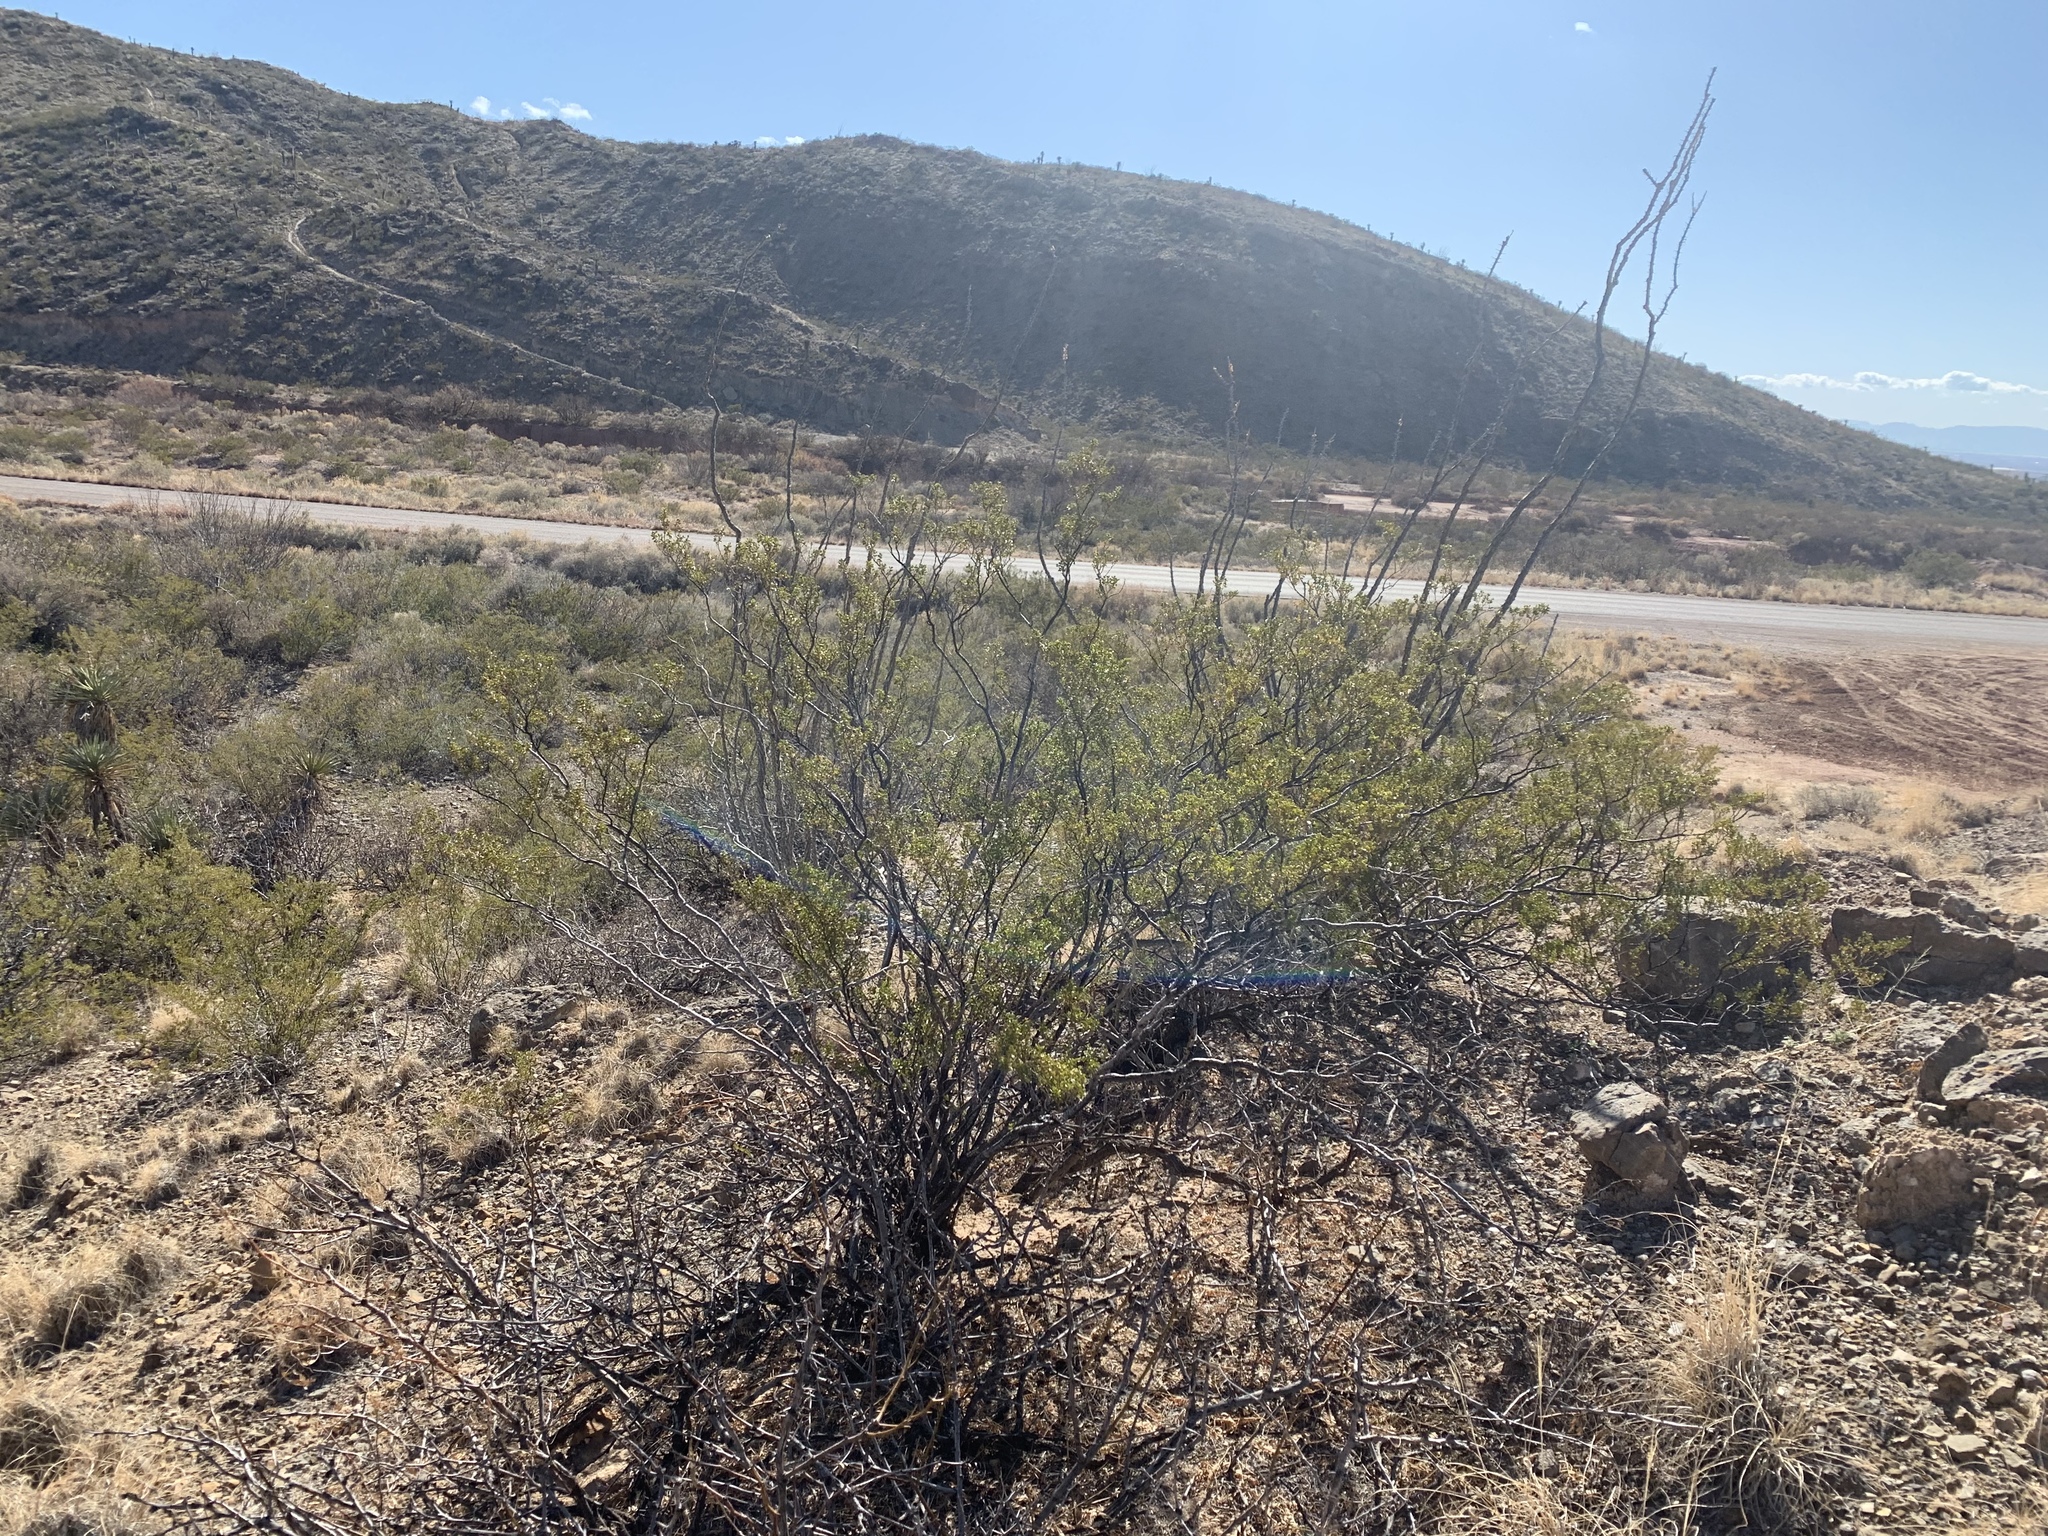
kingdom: Plantae
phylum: Tracheophyta
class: Magnoliopsida
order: Zygophyllales
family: Zygophyllaceae
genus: Larrea
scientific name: Larrea tridentata
